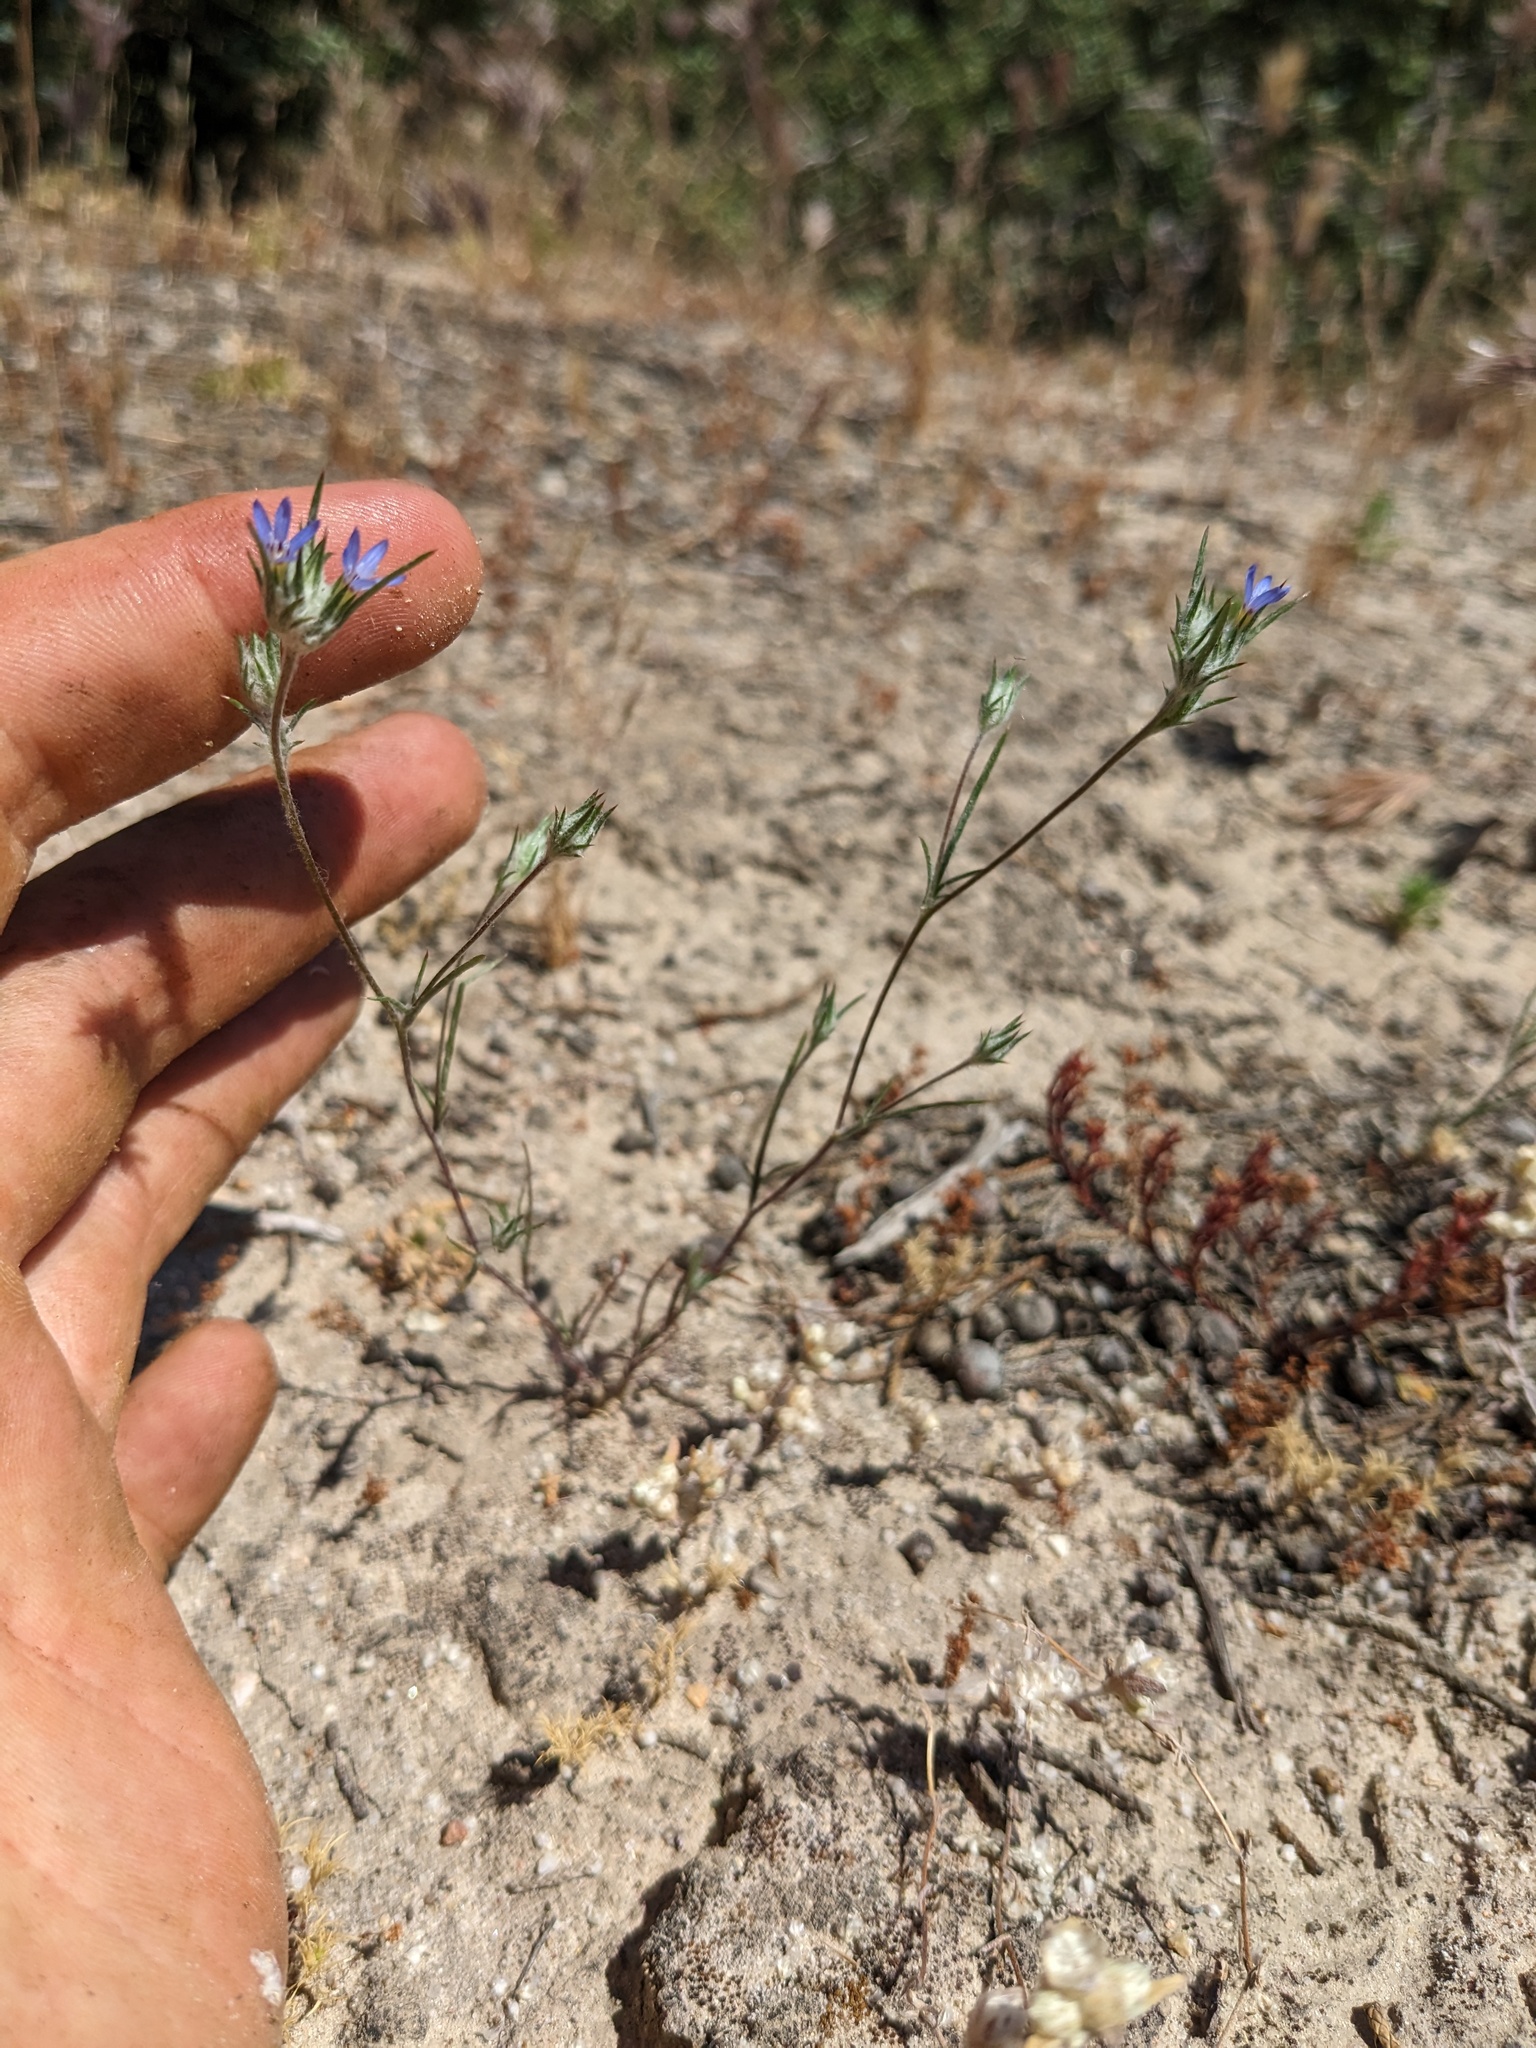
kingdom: Plantae
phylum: Tracheophyta
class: Magnoliopsida
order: Ericales
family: Polemoniaceae
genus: Eriastrum
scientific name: Eriastrum calocyanum
